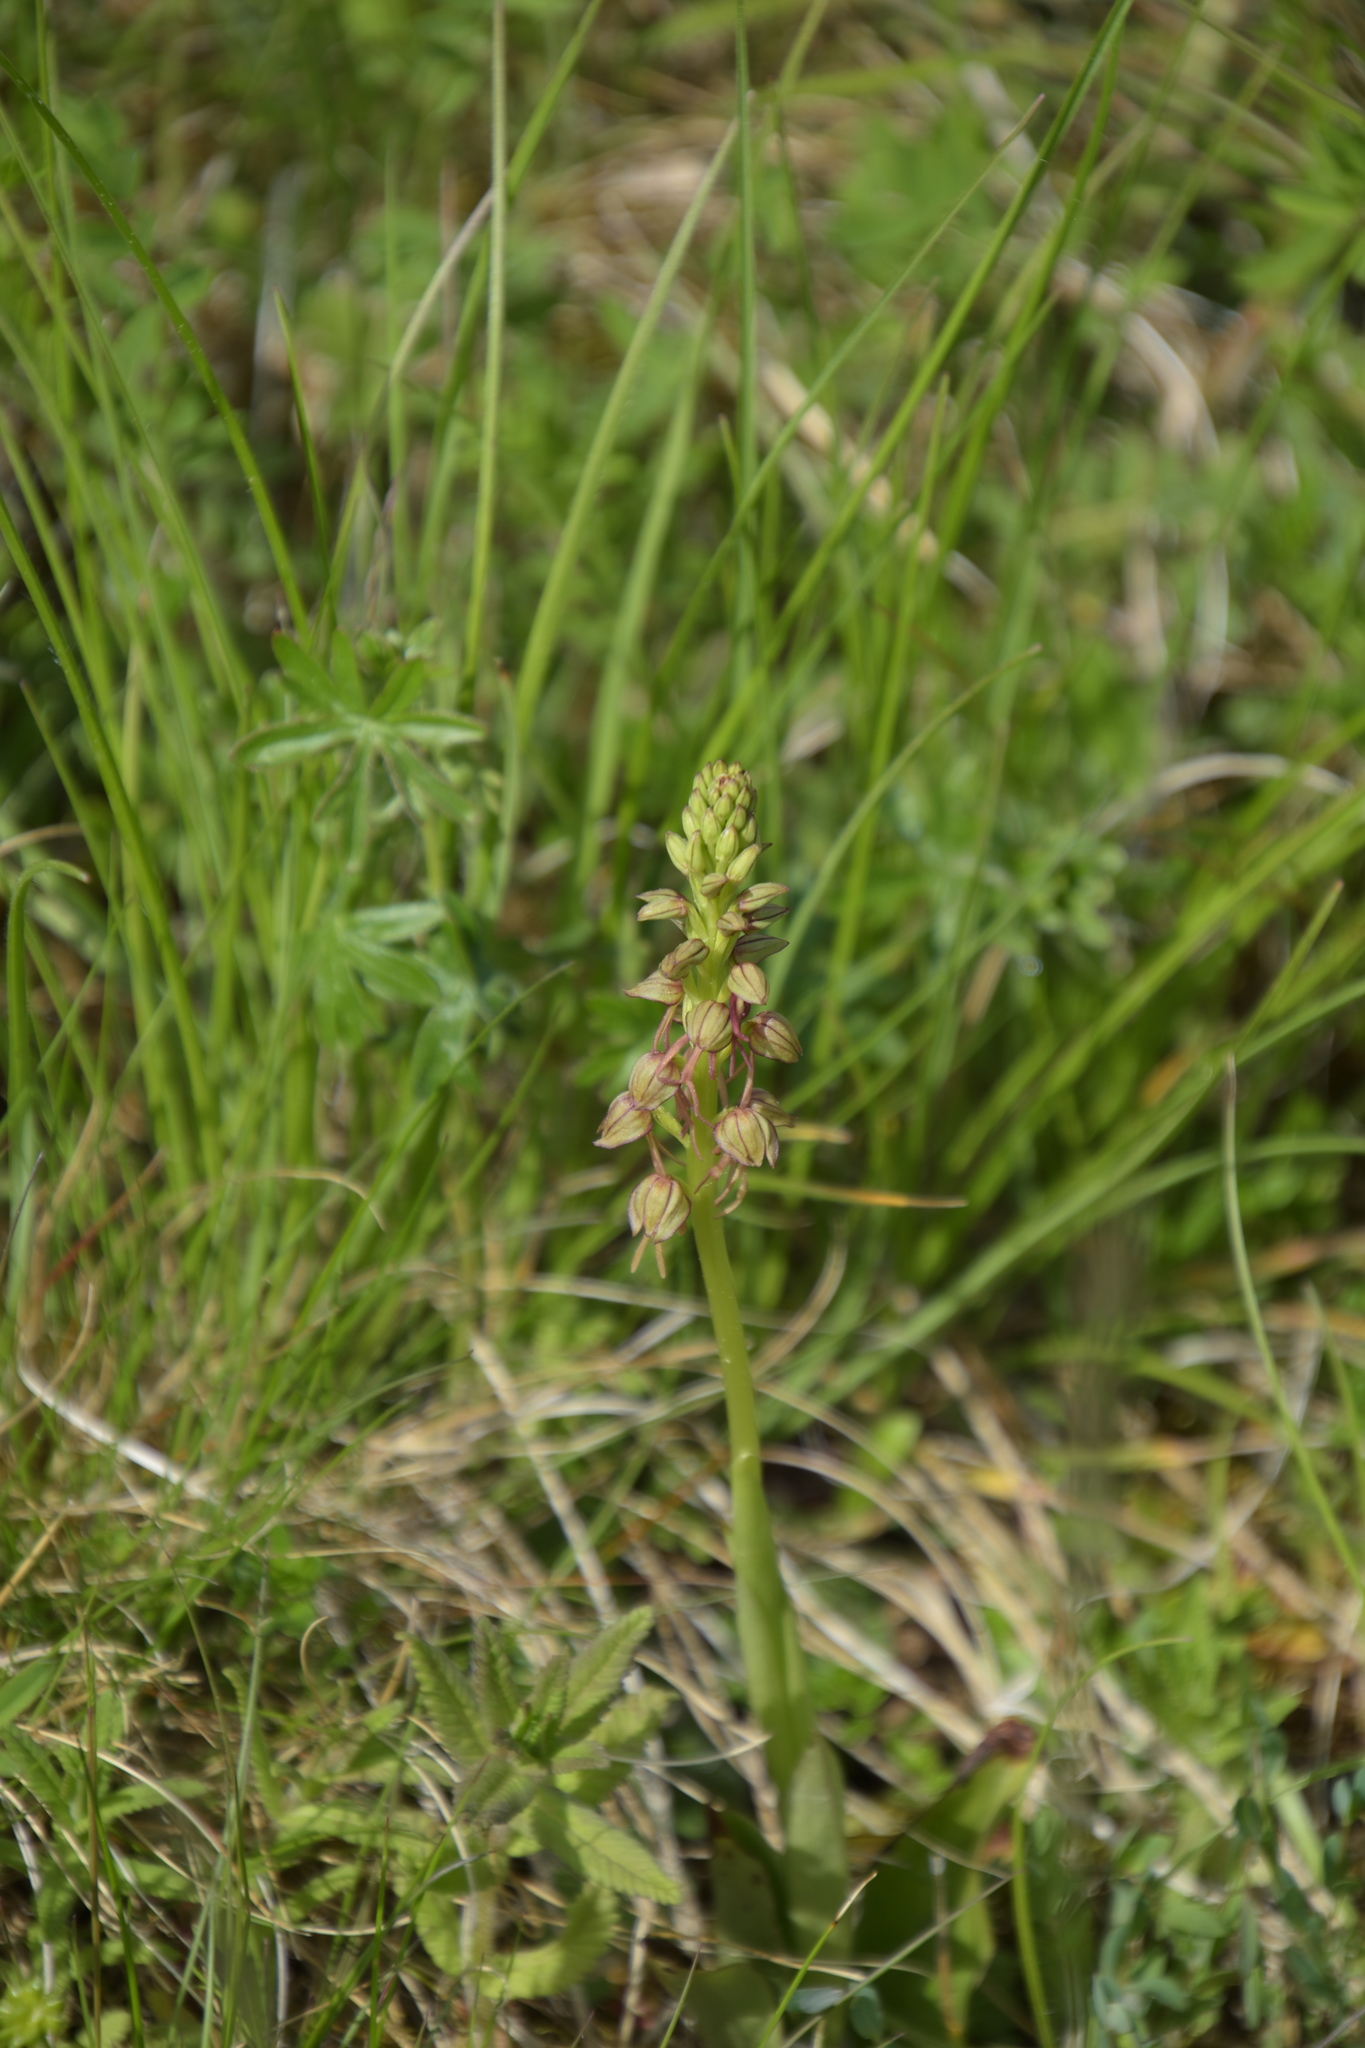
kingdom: Plantae
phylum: Tracheophyta
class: Liliopsida
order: Asparagales
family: Orchidaceae
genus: Orchis
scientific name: Orchis anthropophora
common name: Man orchid
